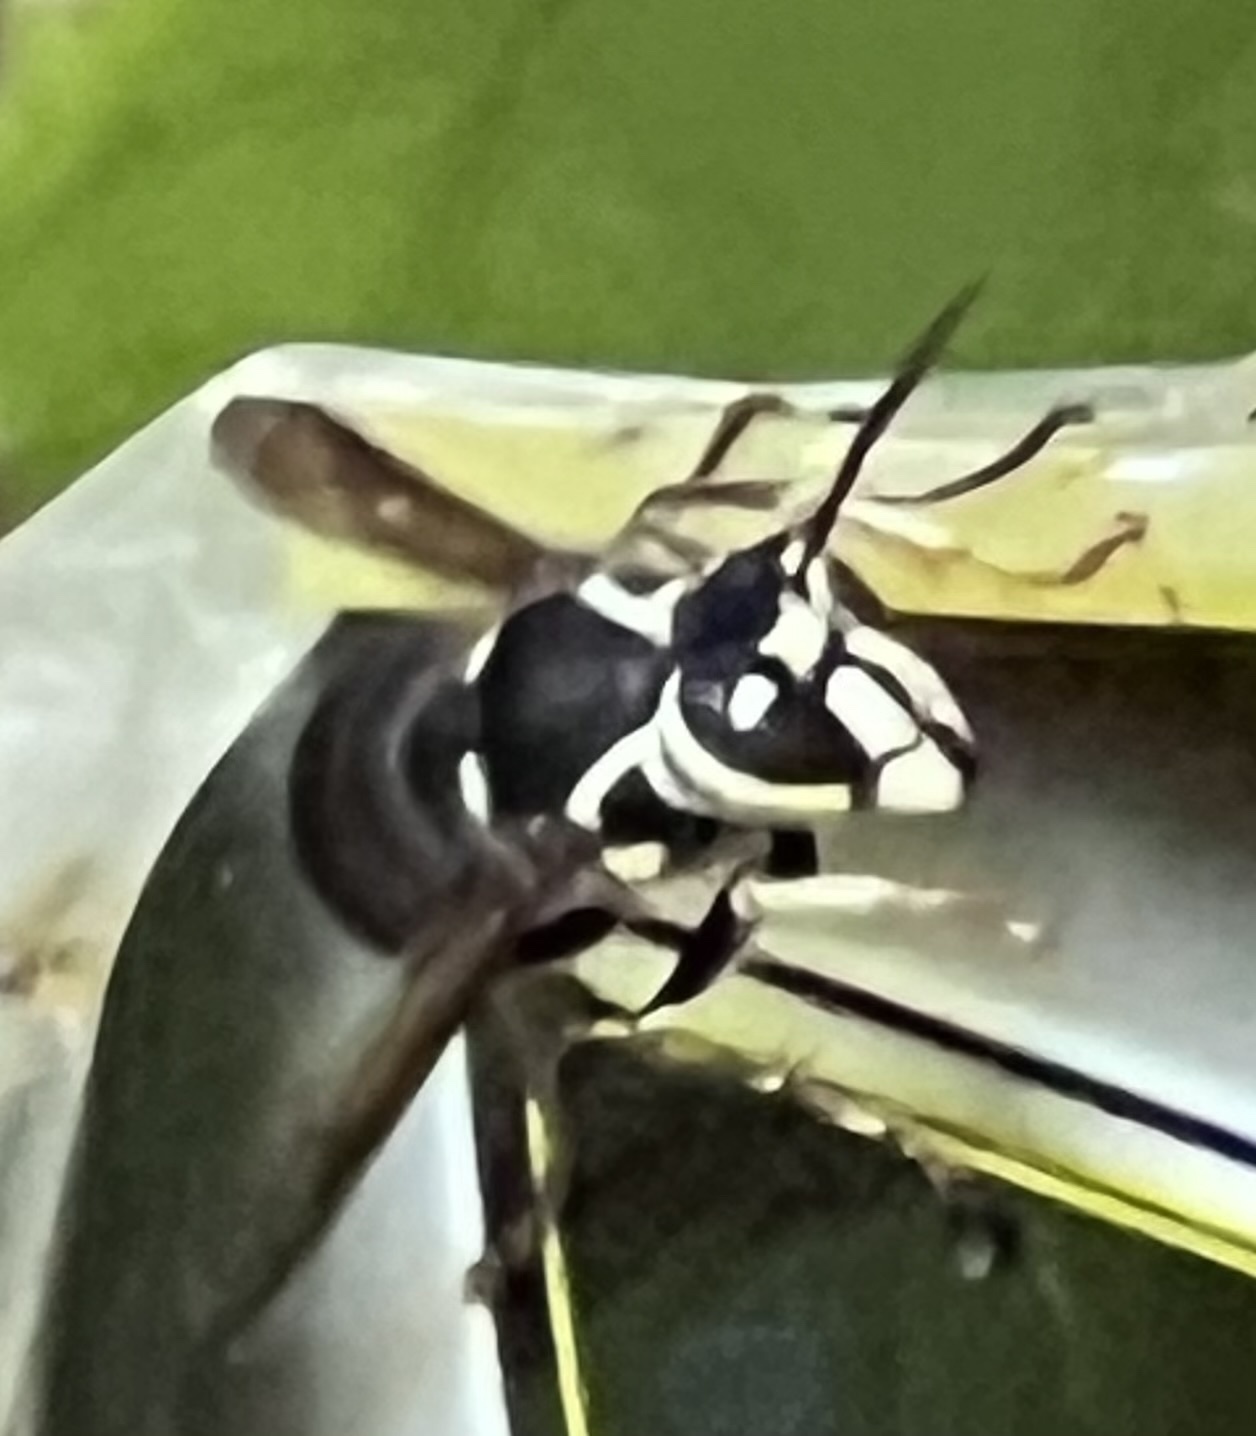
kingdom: Animalia
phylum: Arthropoda
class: Insecta
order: Hymenoptera
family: Vespidae
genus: Dolichovespula
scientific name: Dolichovespula maculata
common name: Bald-faced hornet
